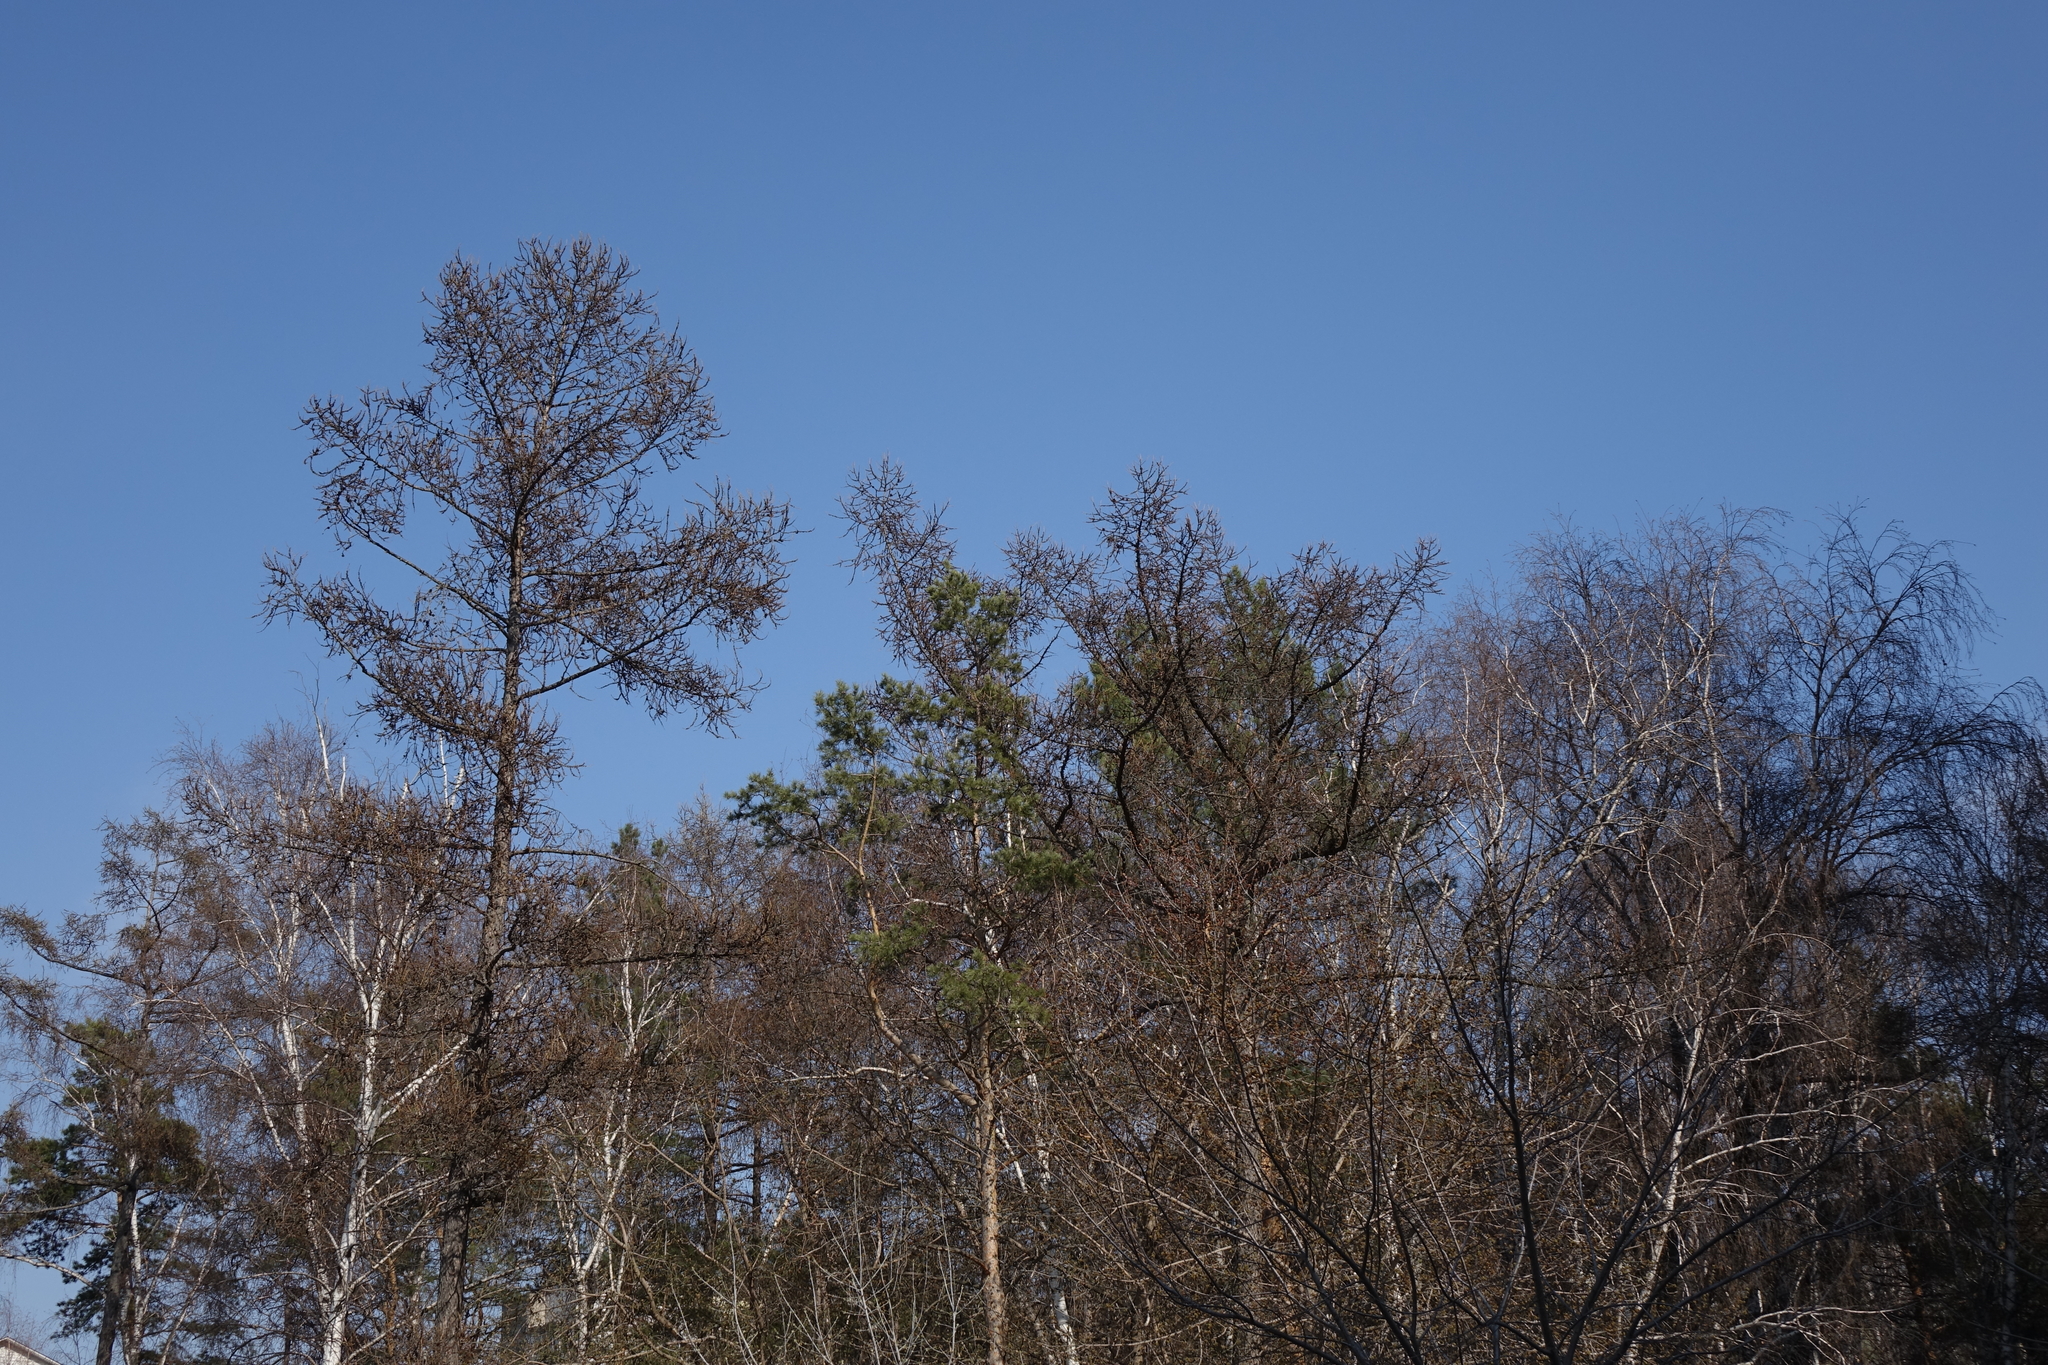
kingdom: Plantae
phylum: Tracheophyta
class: Pinopsida
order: Pinales
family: Pinaceae
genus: Larix
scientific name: Larix sibirica
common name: Siberian larch
